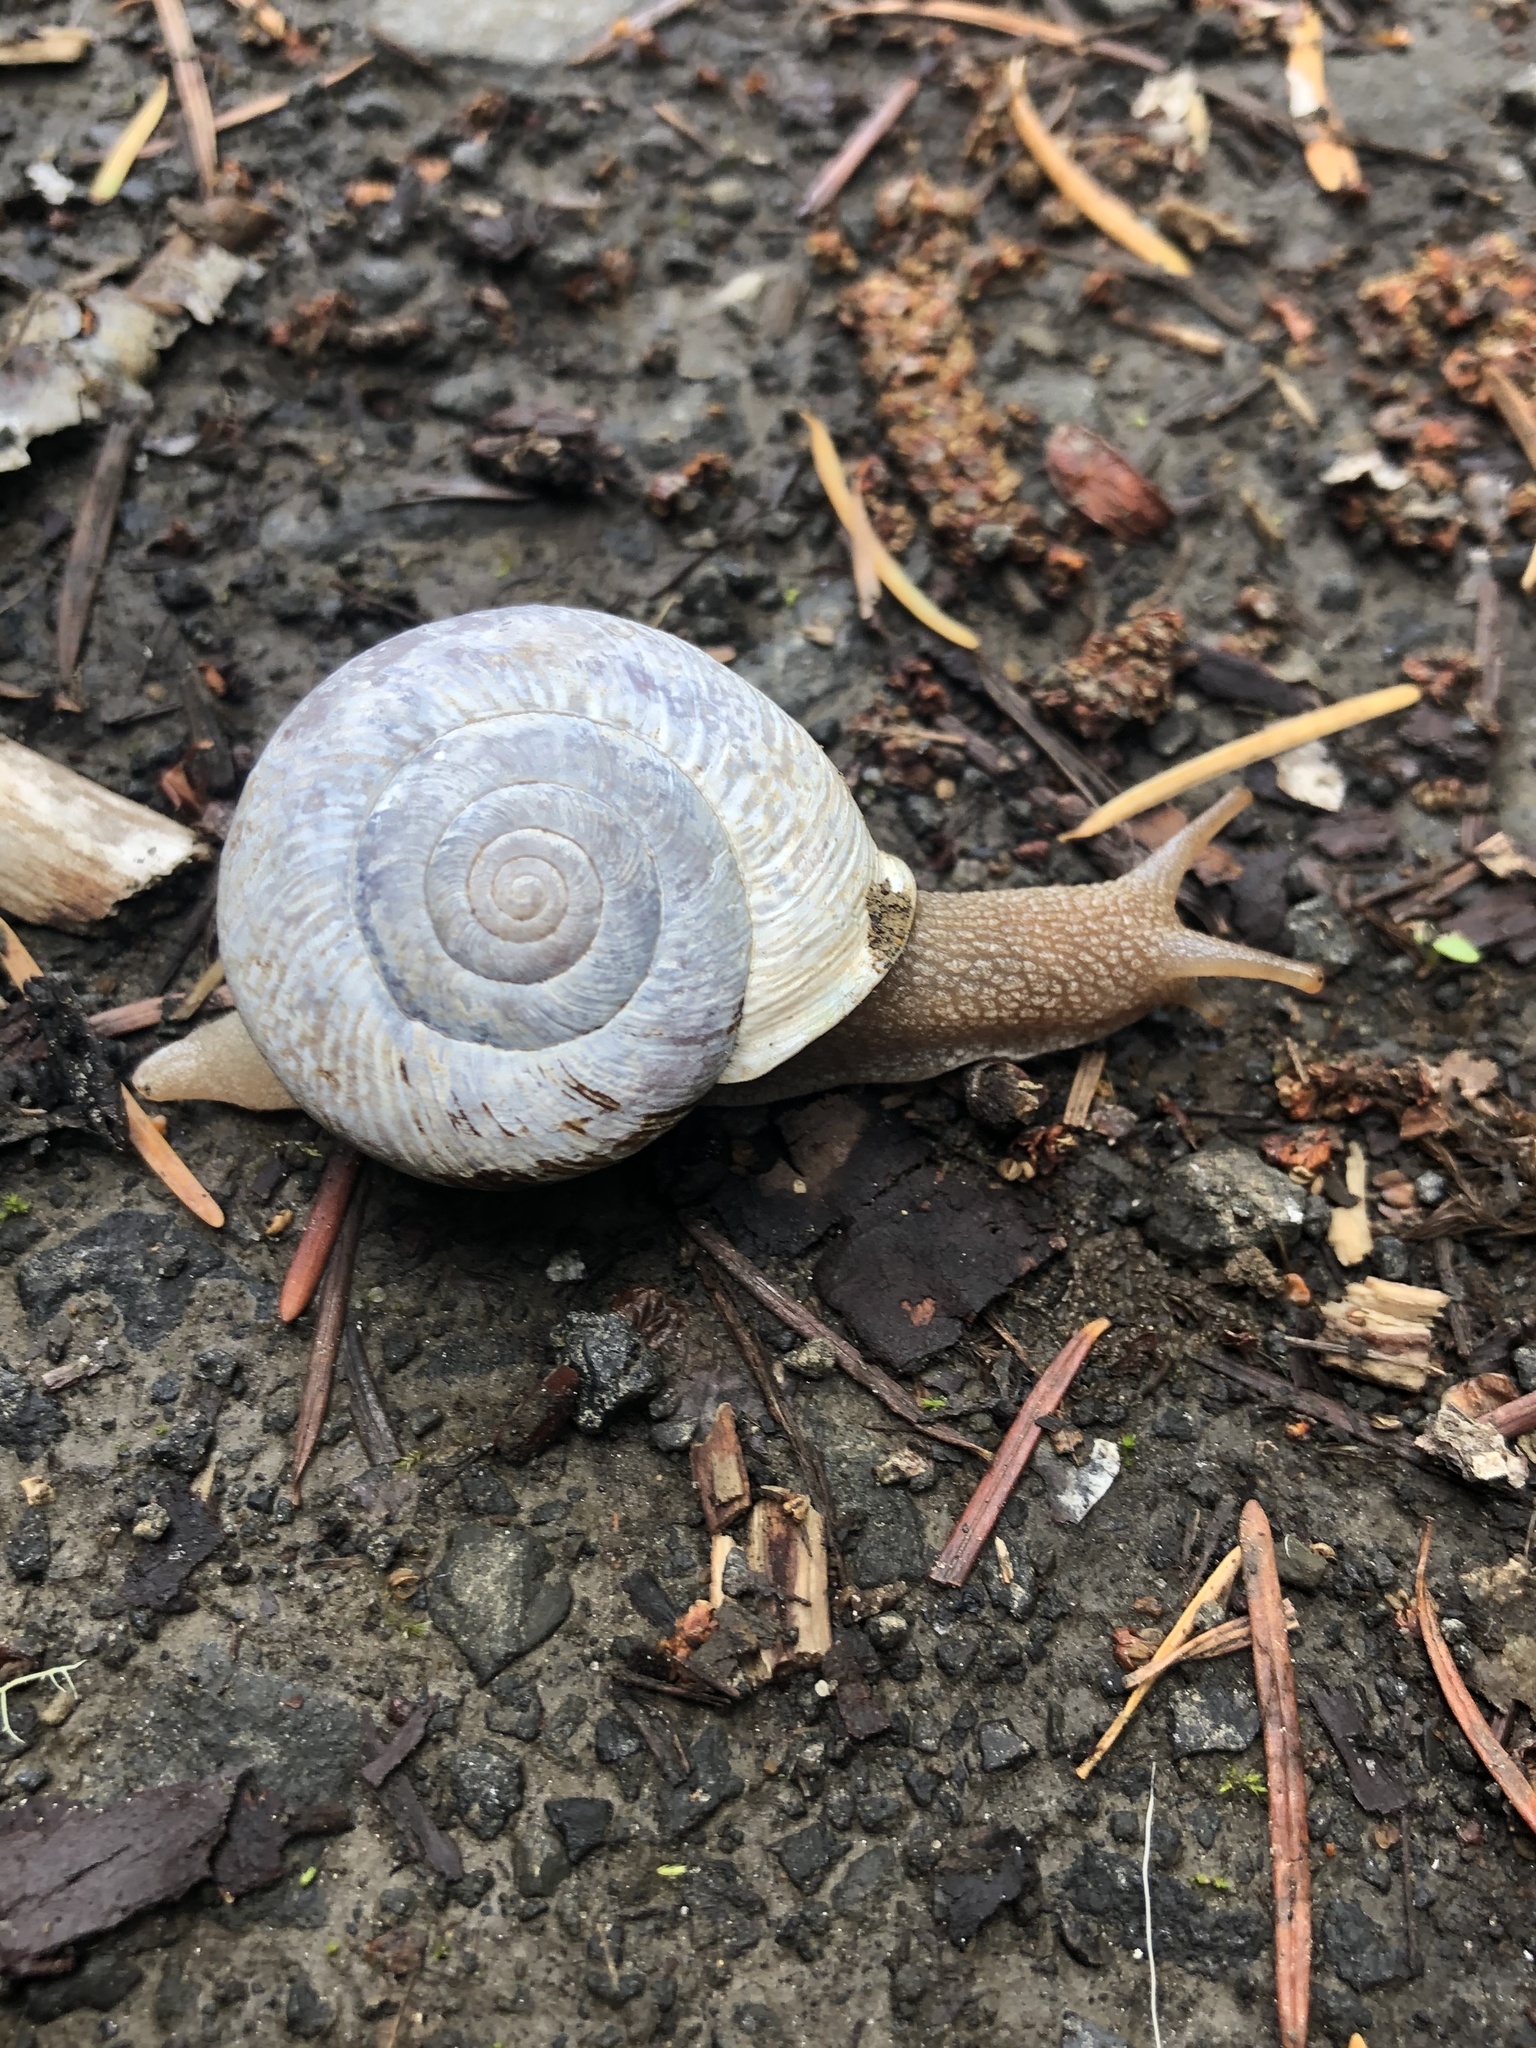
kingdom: Animalia
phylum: Mollusca
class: Gastropoda
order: Stylommatophora
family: Polygyridae
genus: Allogona
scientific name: Allogona townsendiana
